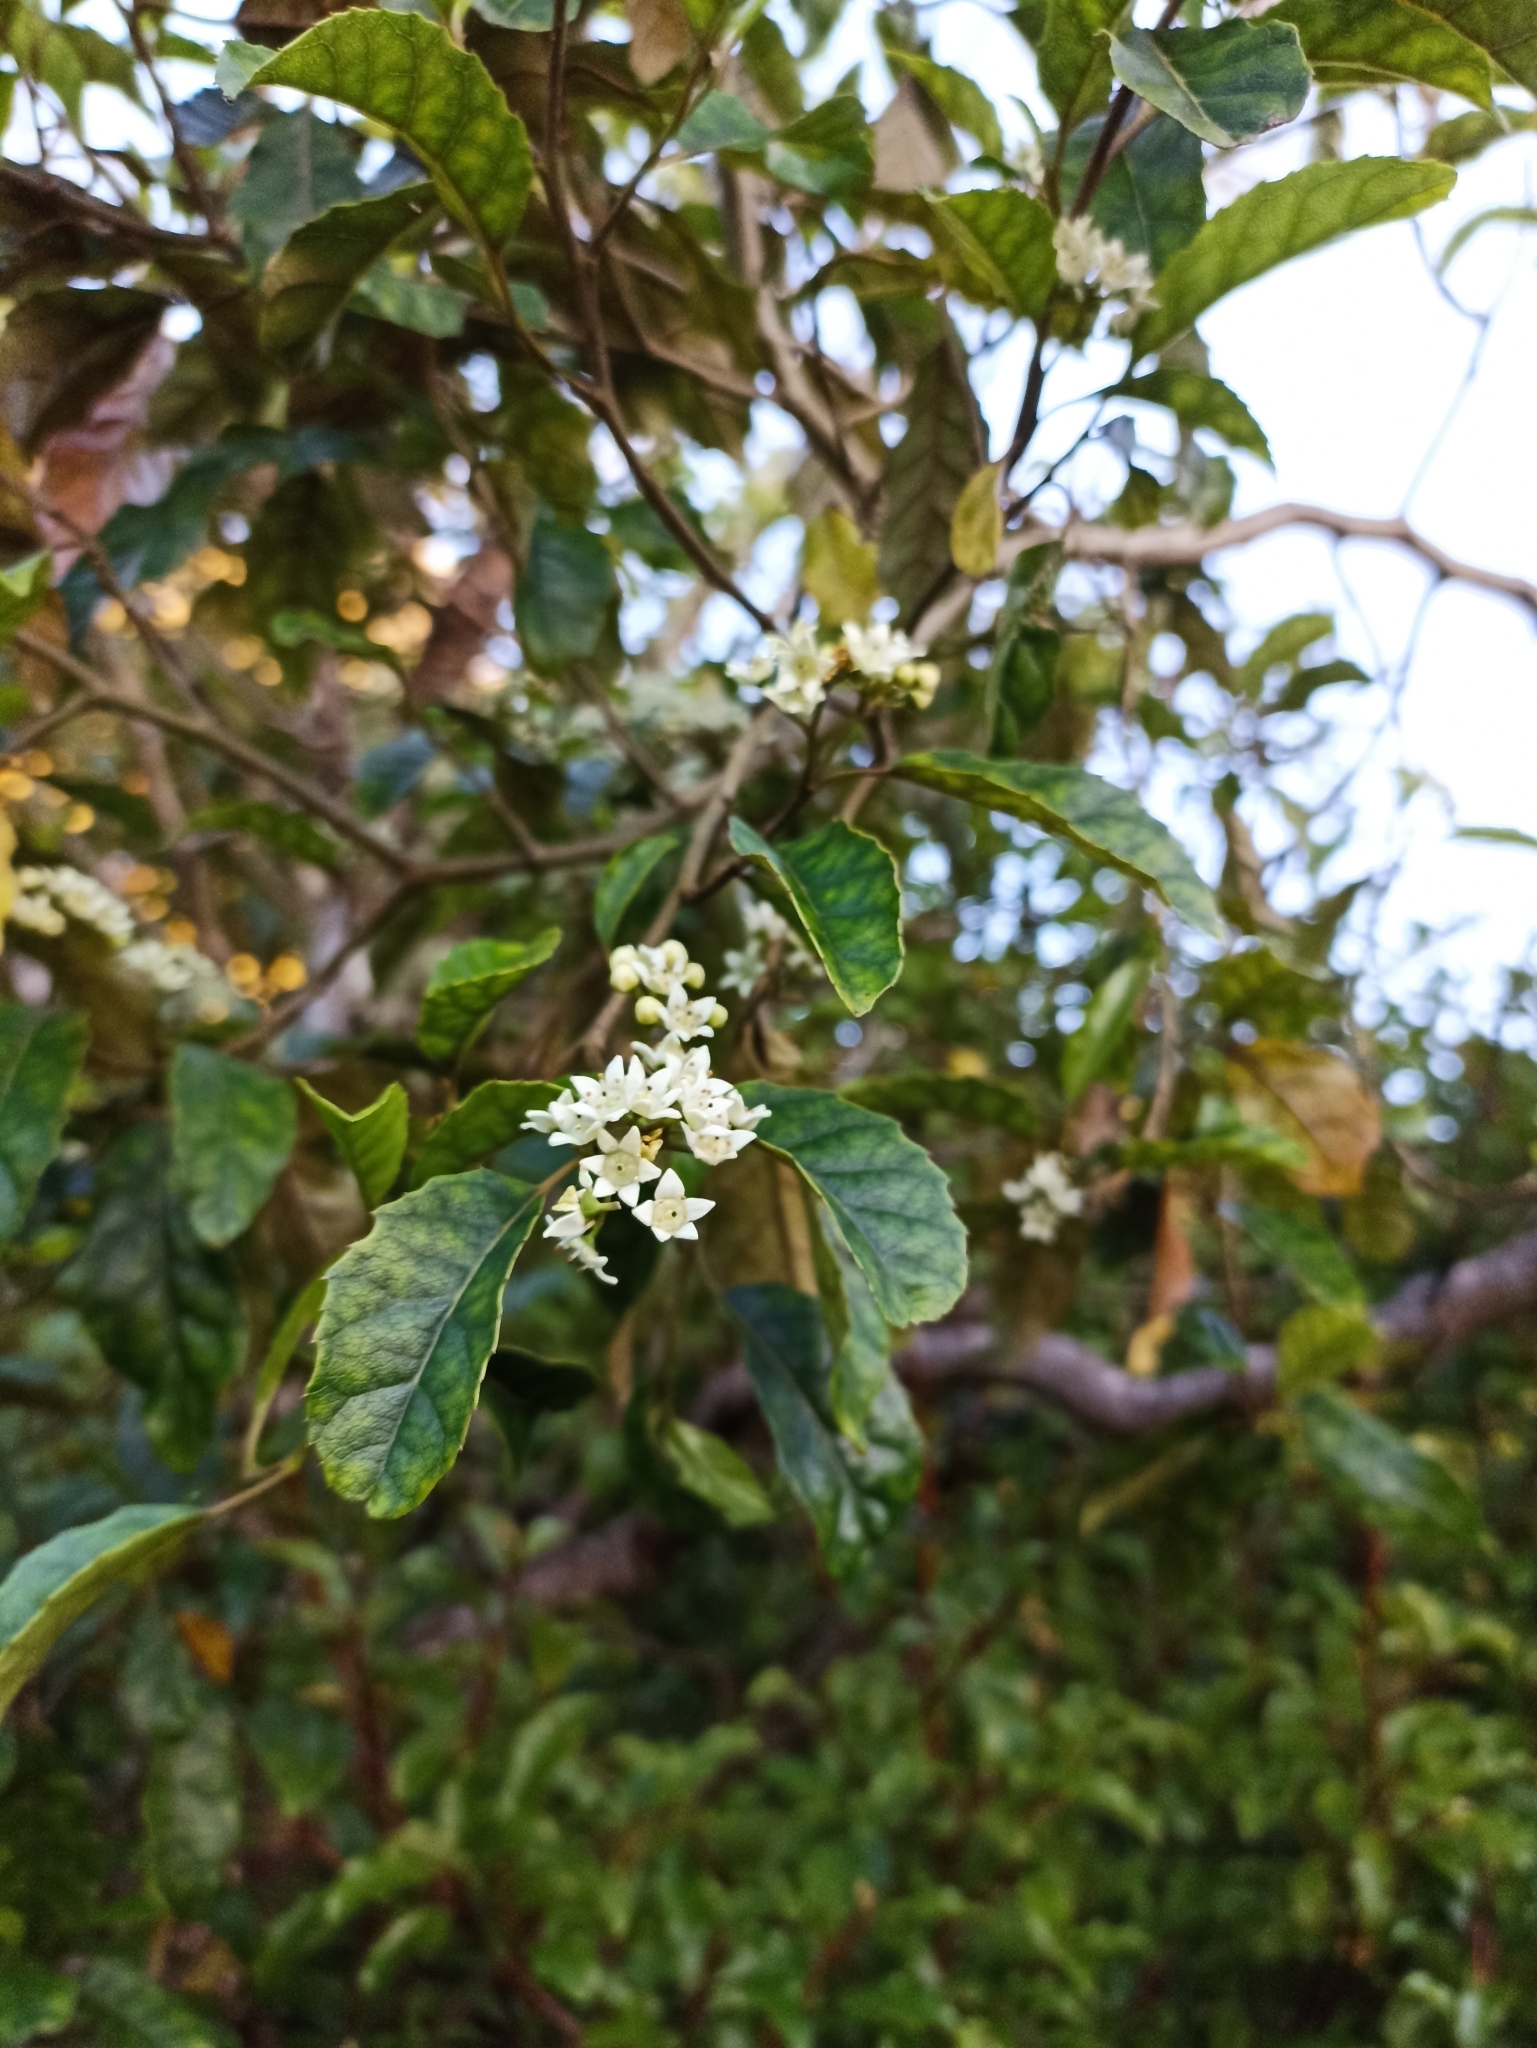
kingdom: Plantae
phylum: Tracheophyta
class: Magnoliopsida
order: Asterales
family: Rousseaceae
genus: Carpodetus
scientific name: Carpodetus serratus
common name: White mapau
